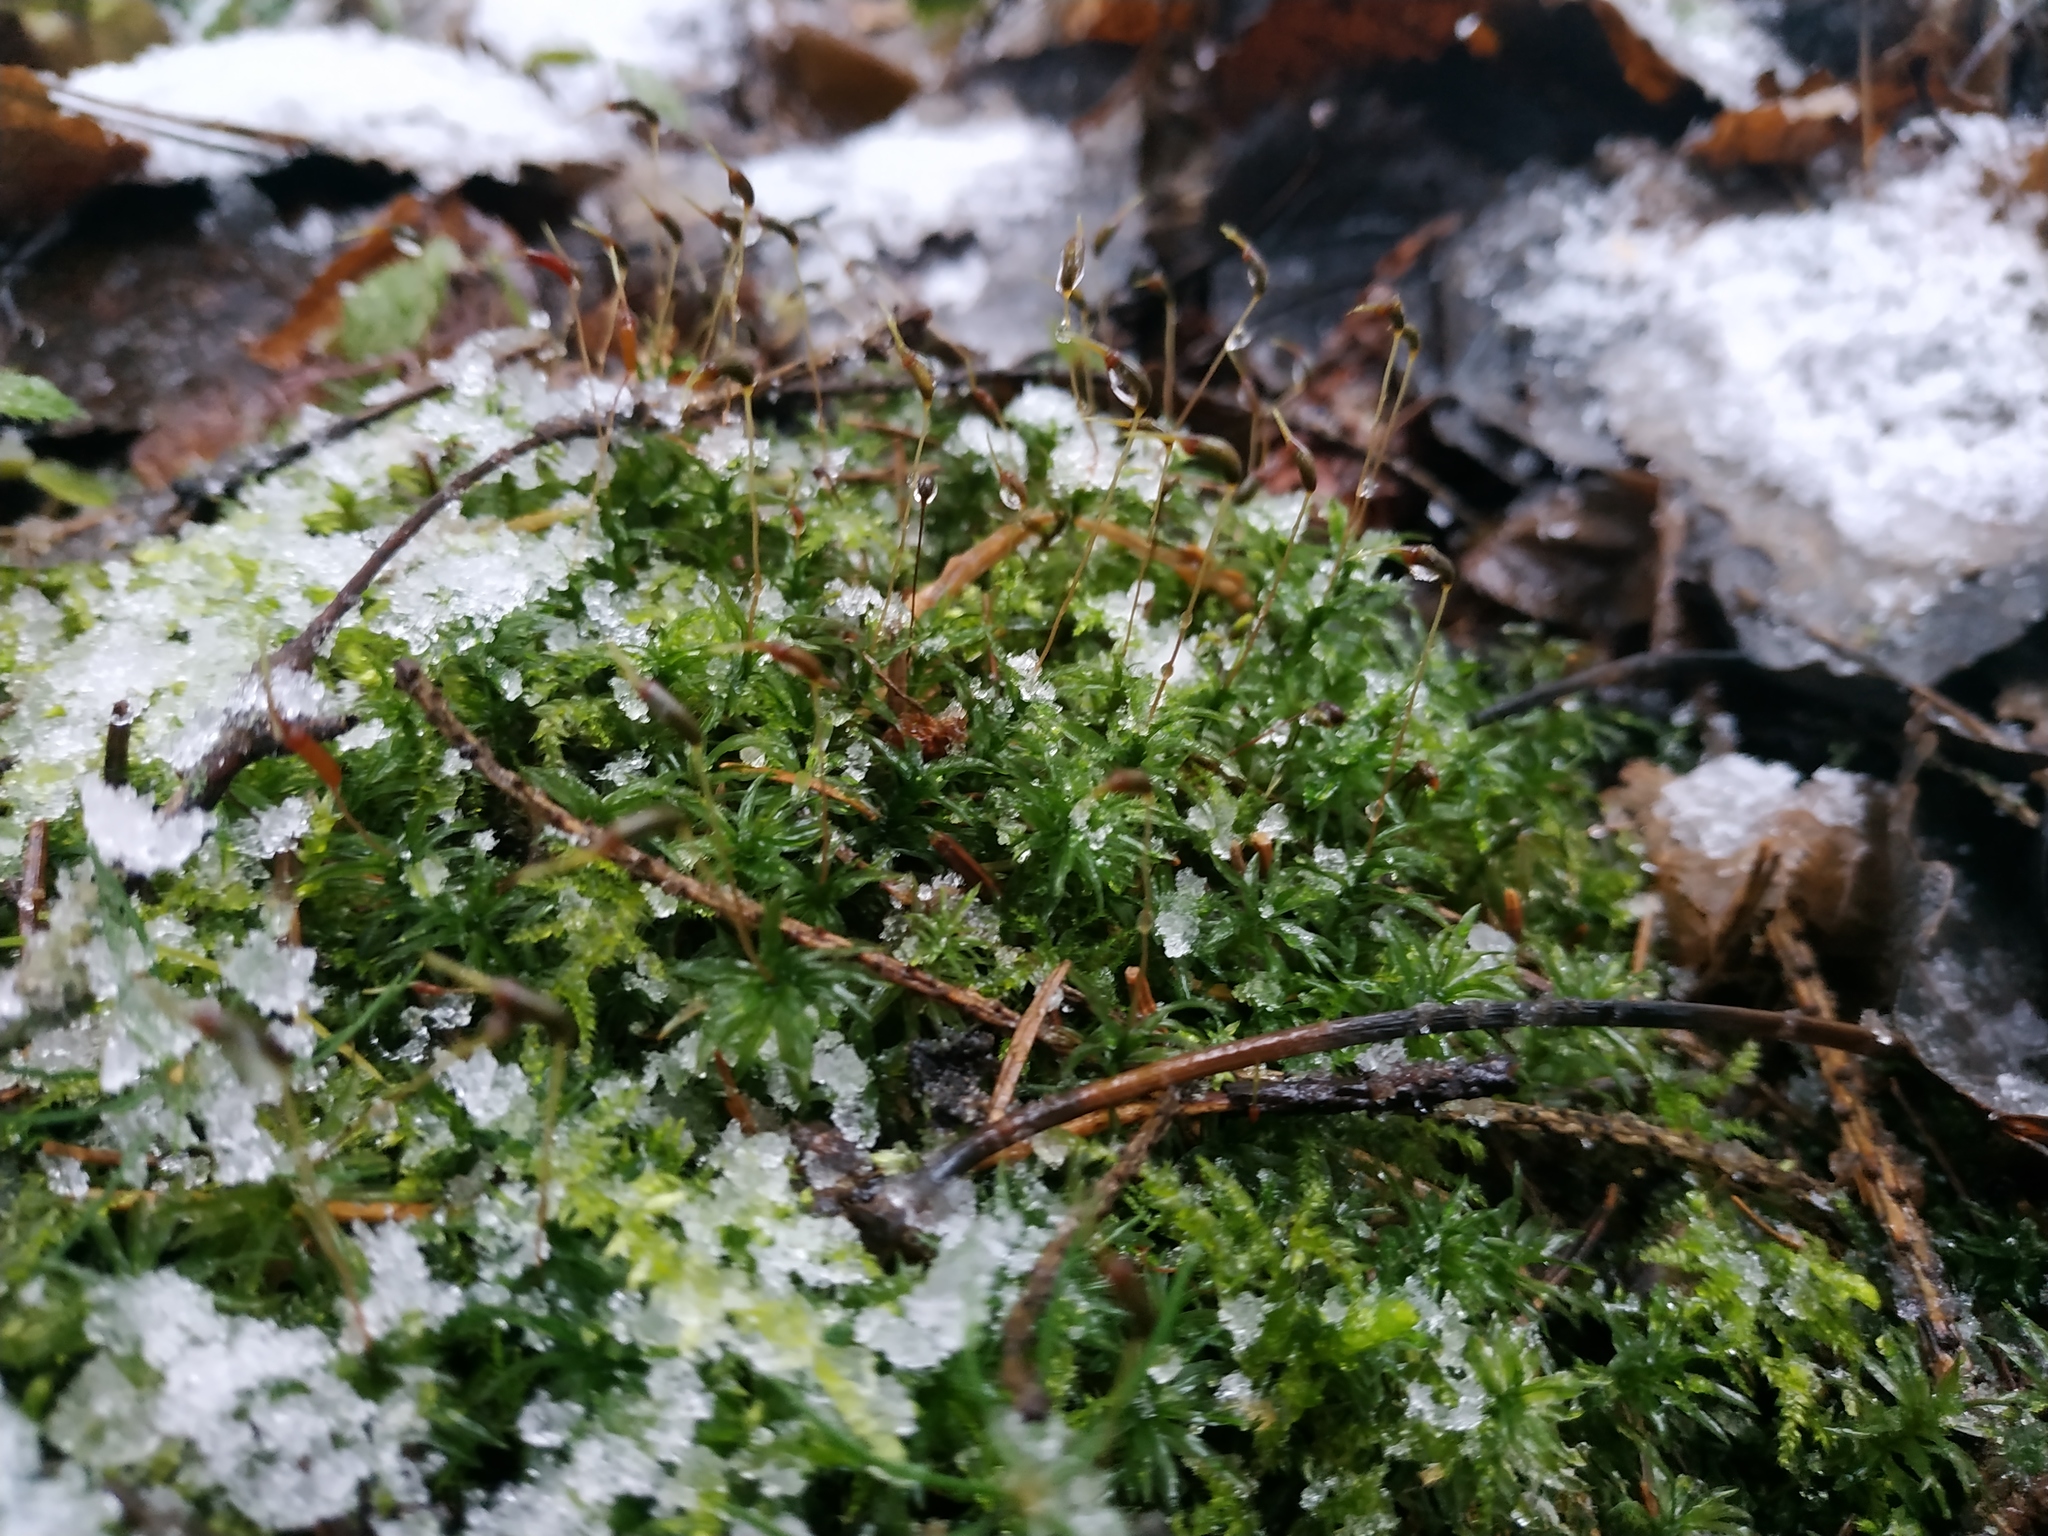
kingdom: Plantae
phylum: Bryophyta
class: Polytrichopsida
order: Polytrichales
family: Polytrichaceae
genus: Atrichum
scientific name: Atrichum undulatum
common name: Common smoothcap
